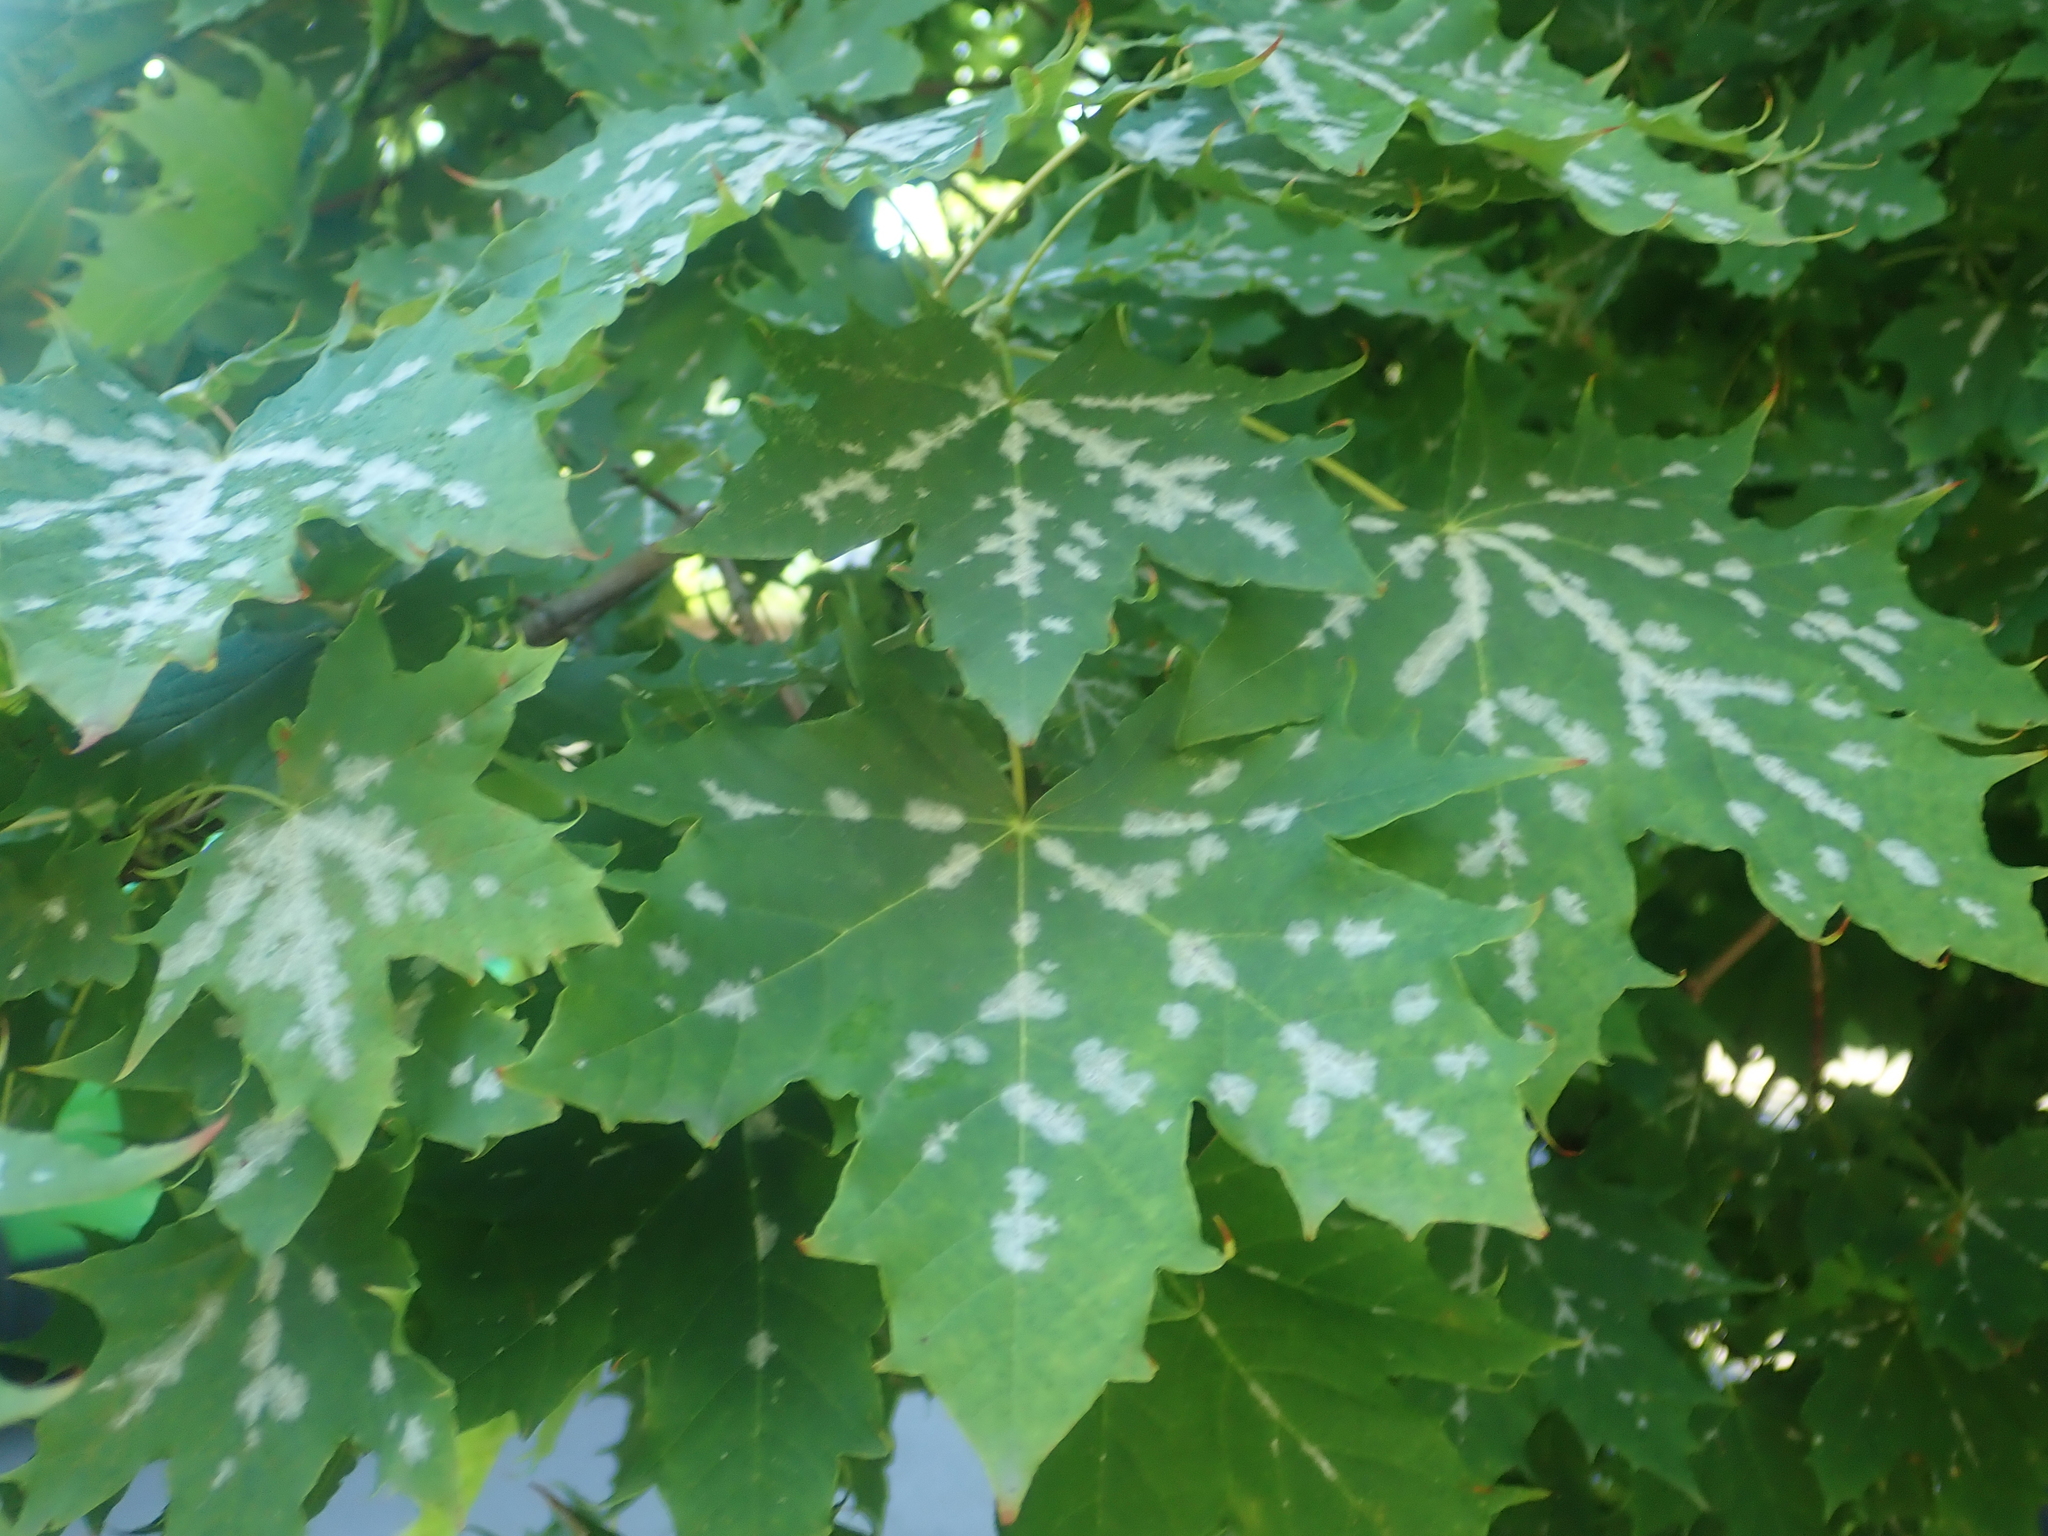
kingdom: Fungi
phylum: Ascomycota
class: Leotiomycetes
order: Helotiales
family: Erysiphaceae
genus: Sawadaea
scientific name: Sawadaea tulasnei
